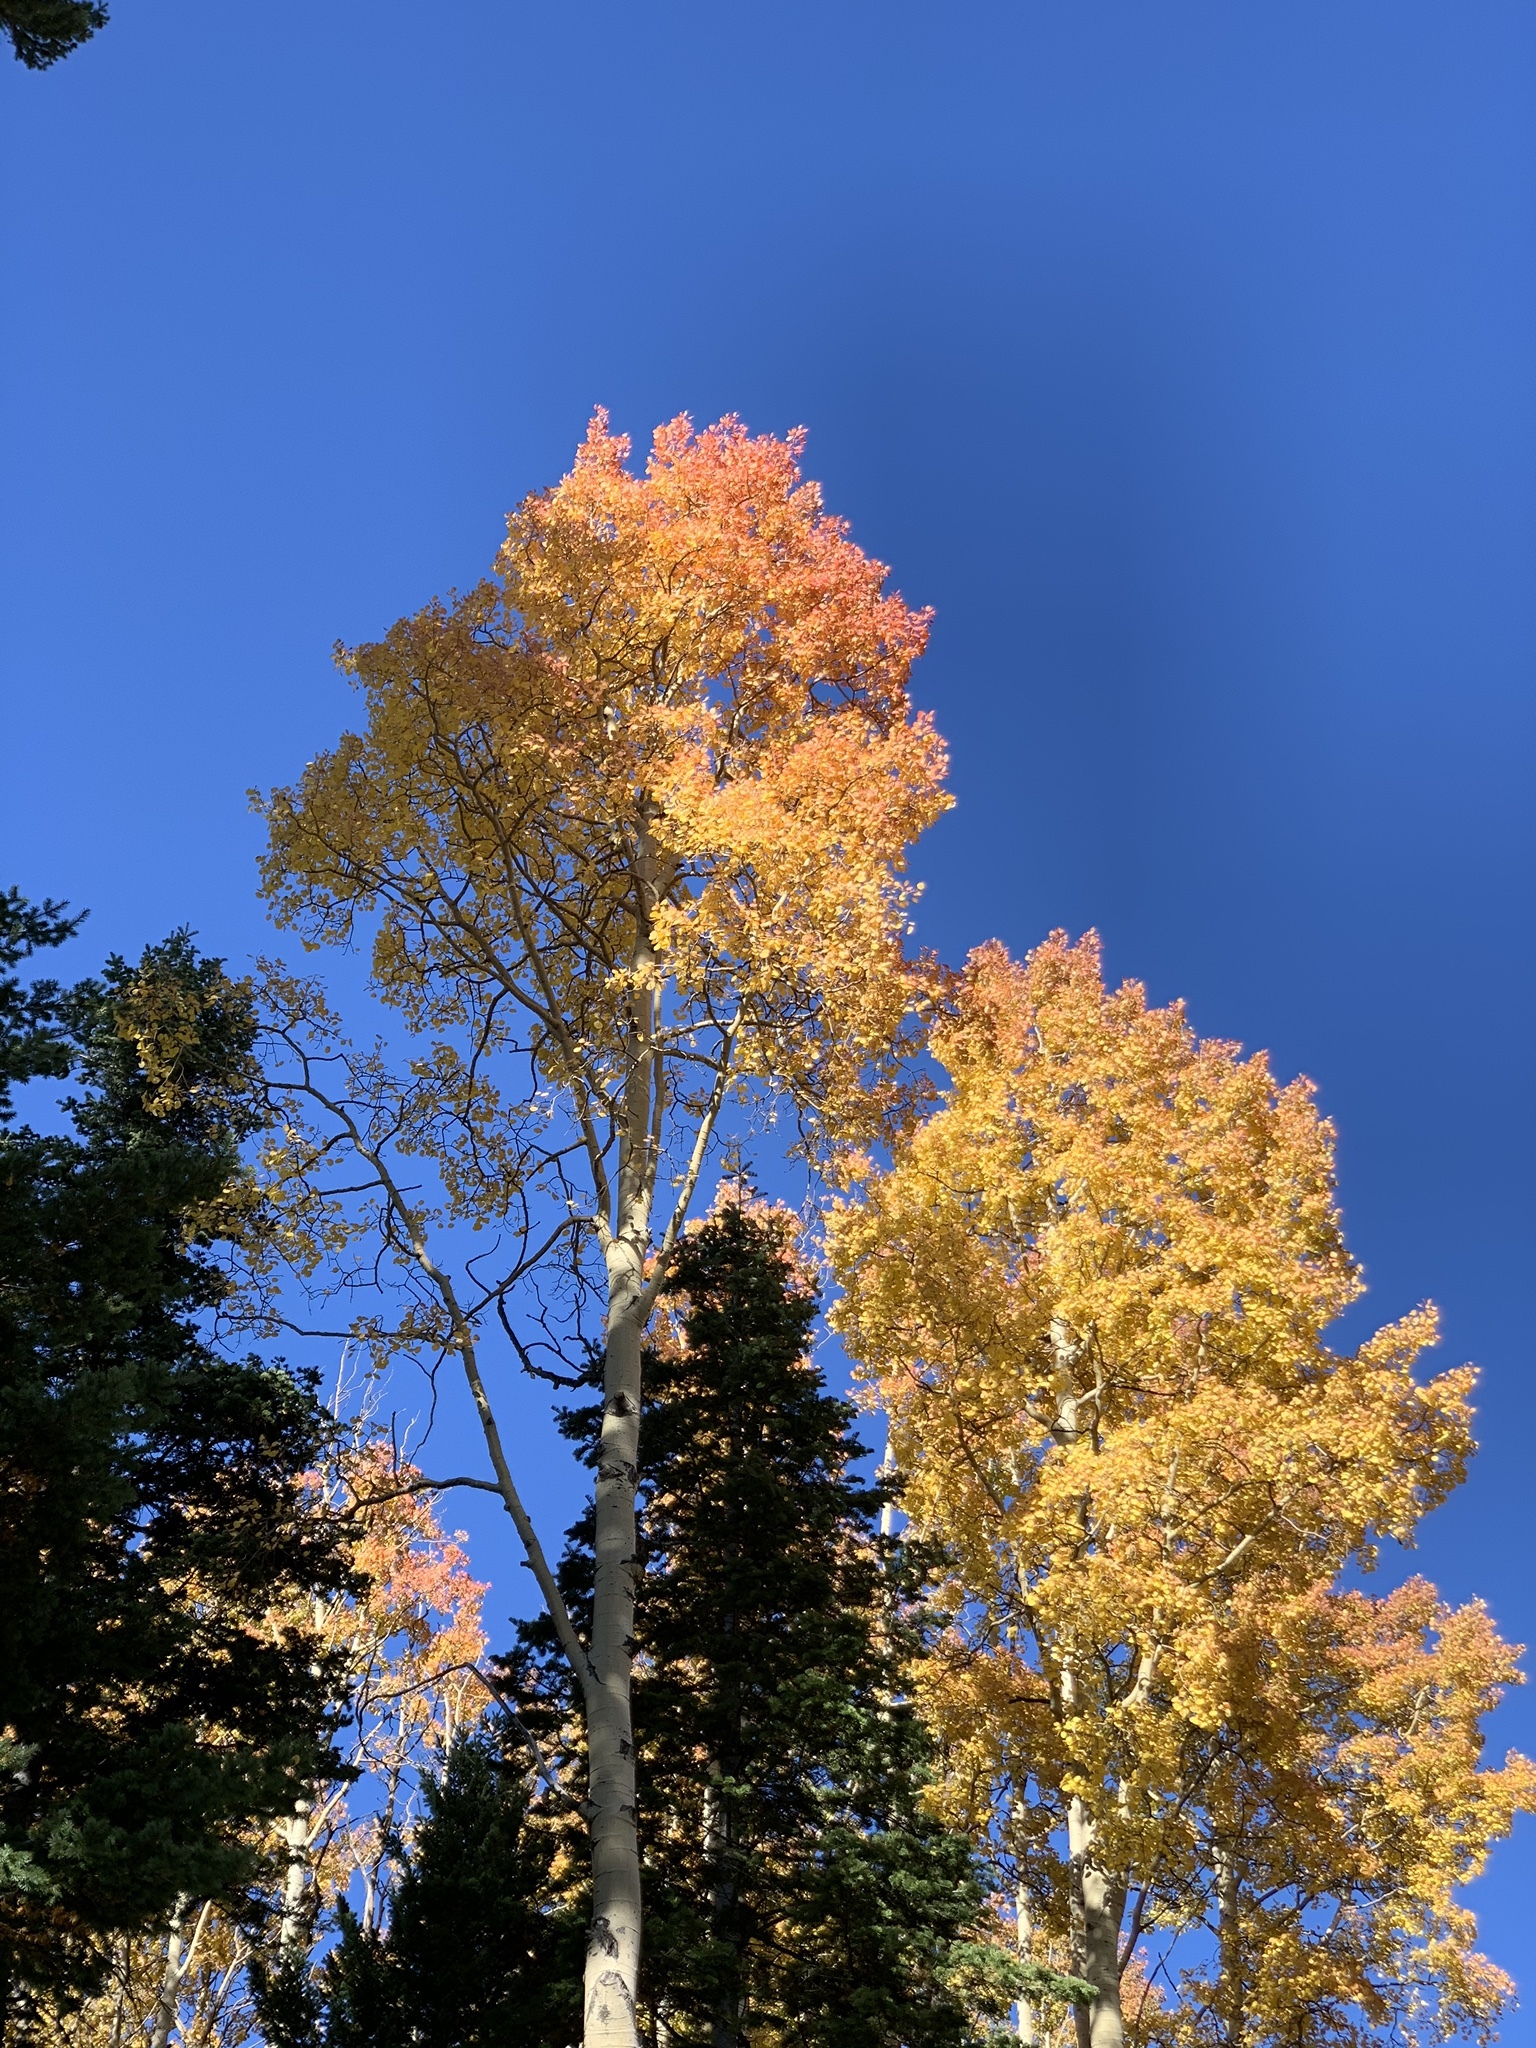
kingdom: Plantae
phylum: Tracheophyta
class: Magnoliopsida
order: Malpighiales
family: Salicaceae
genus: Populus
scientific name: Populus tremuloides
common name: Quaking aspen
